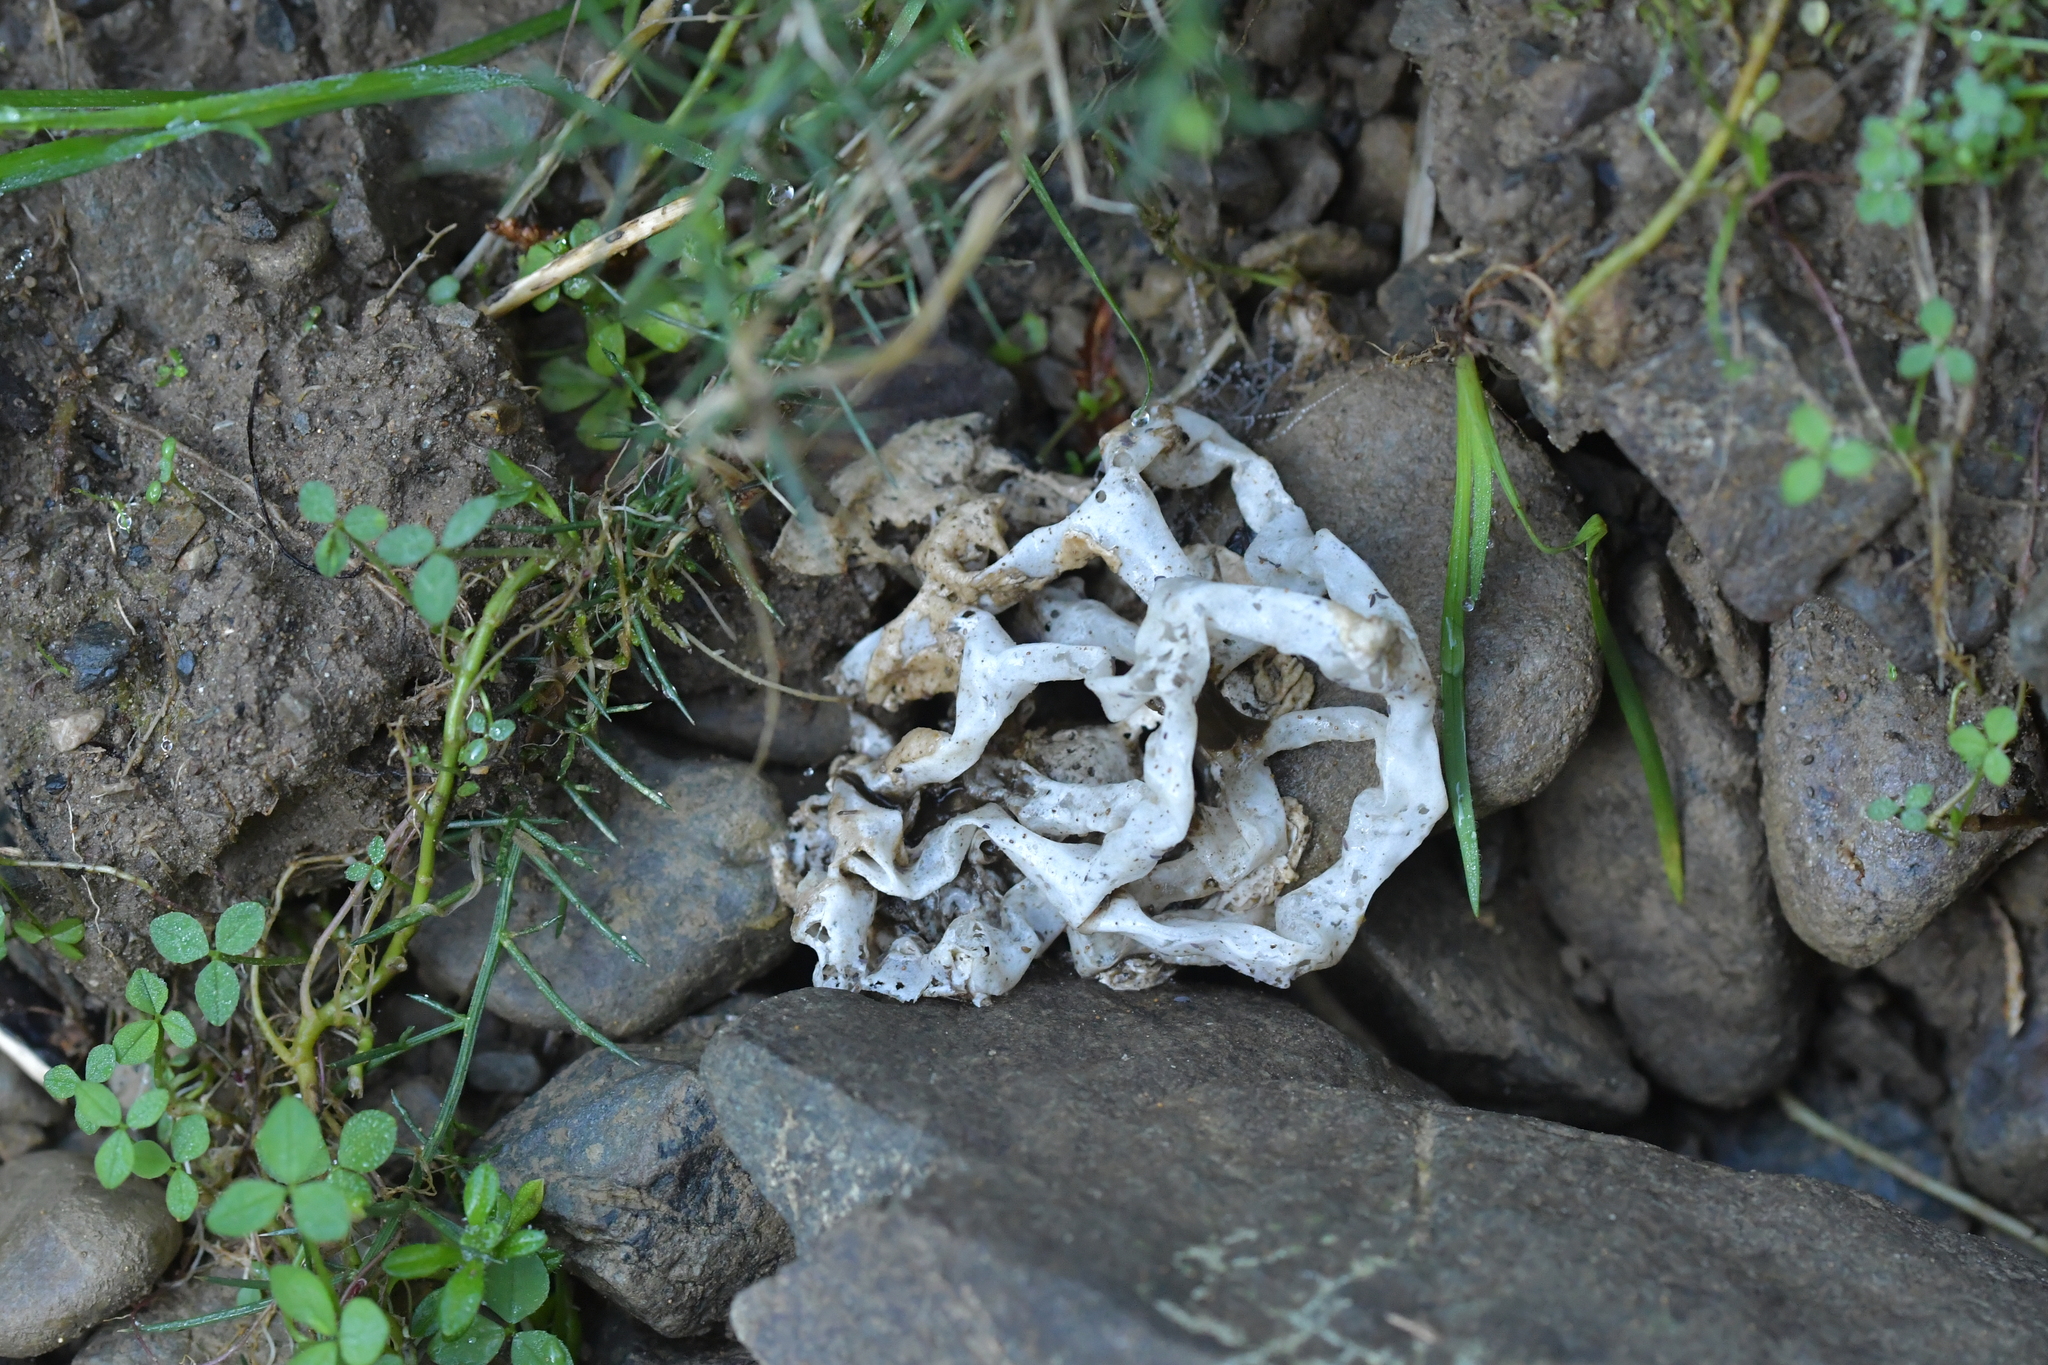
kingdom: Fungi
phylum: Basidiomycota
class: Agaricomycetes
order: Phallales
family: Phallaceae
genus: Ileodictyon
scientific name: Ileodictyon cibarium
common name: Basket fungus
